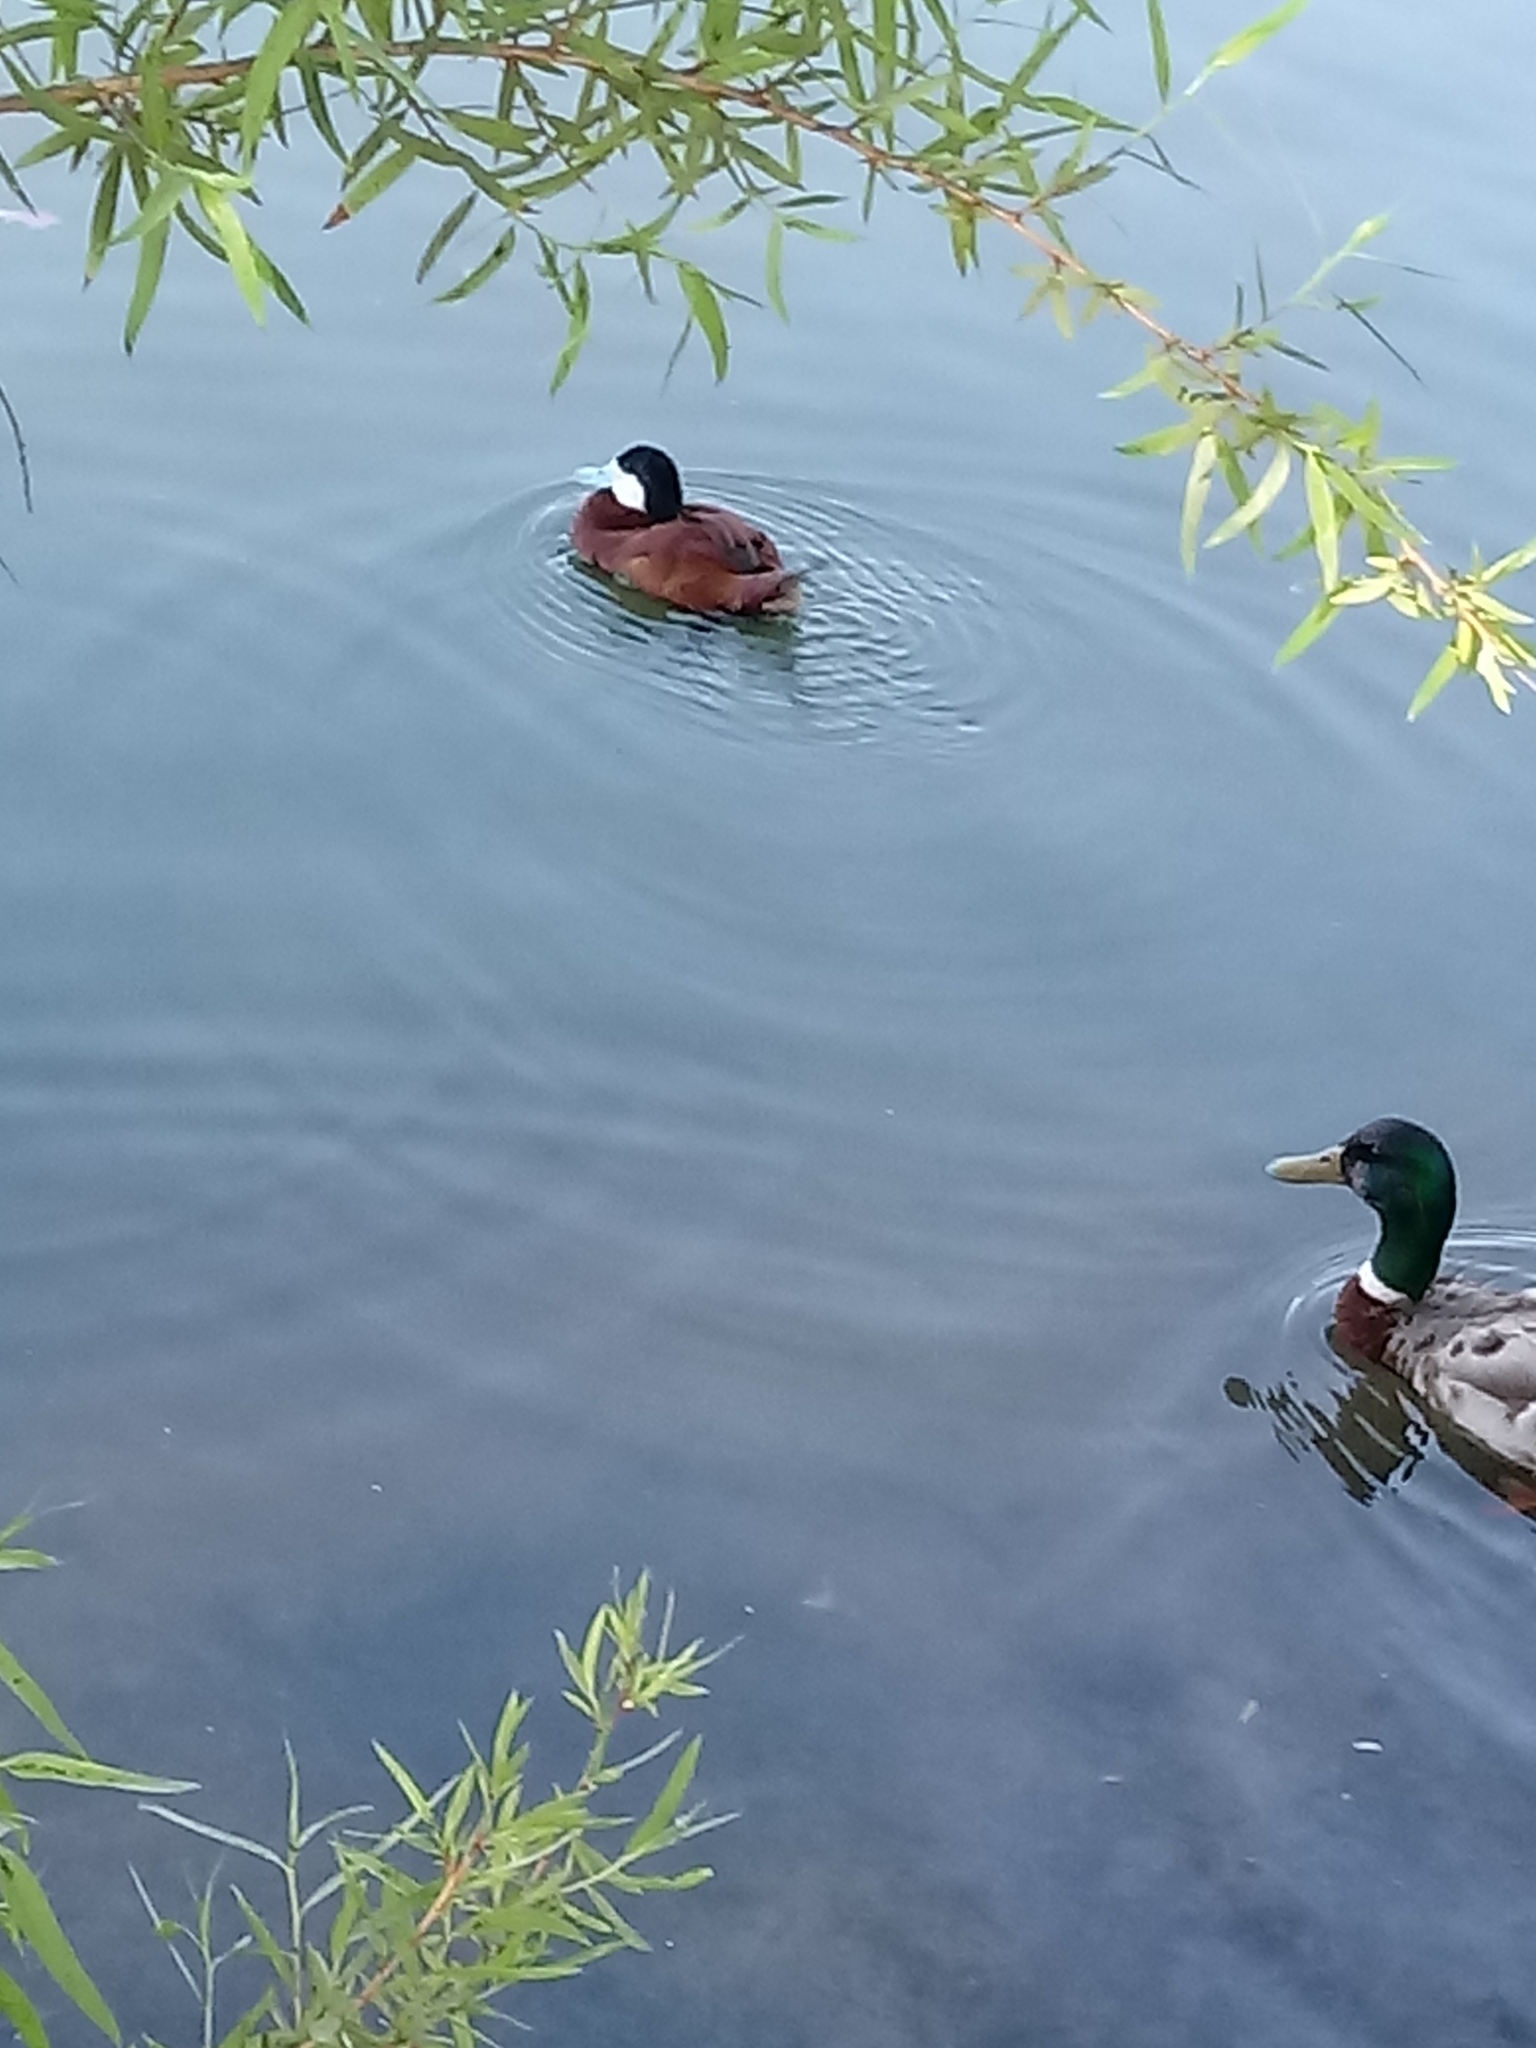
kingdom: Animalia
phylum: Chordata
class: Aves
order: Anseriformes
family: Anatidae
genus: Oxyura
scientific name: Oxyura jamaicensis
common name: Ruddy duck
